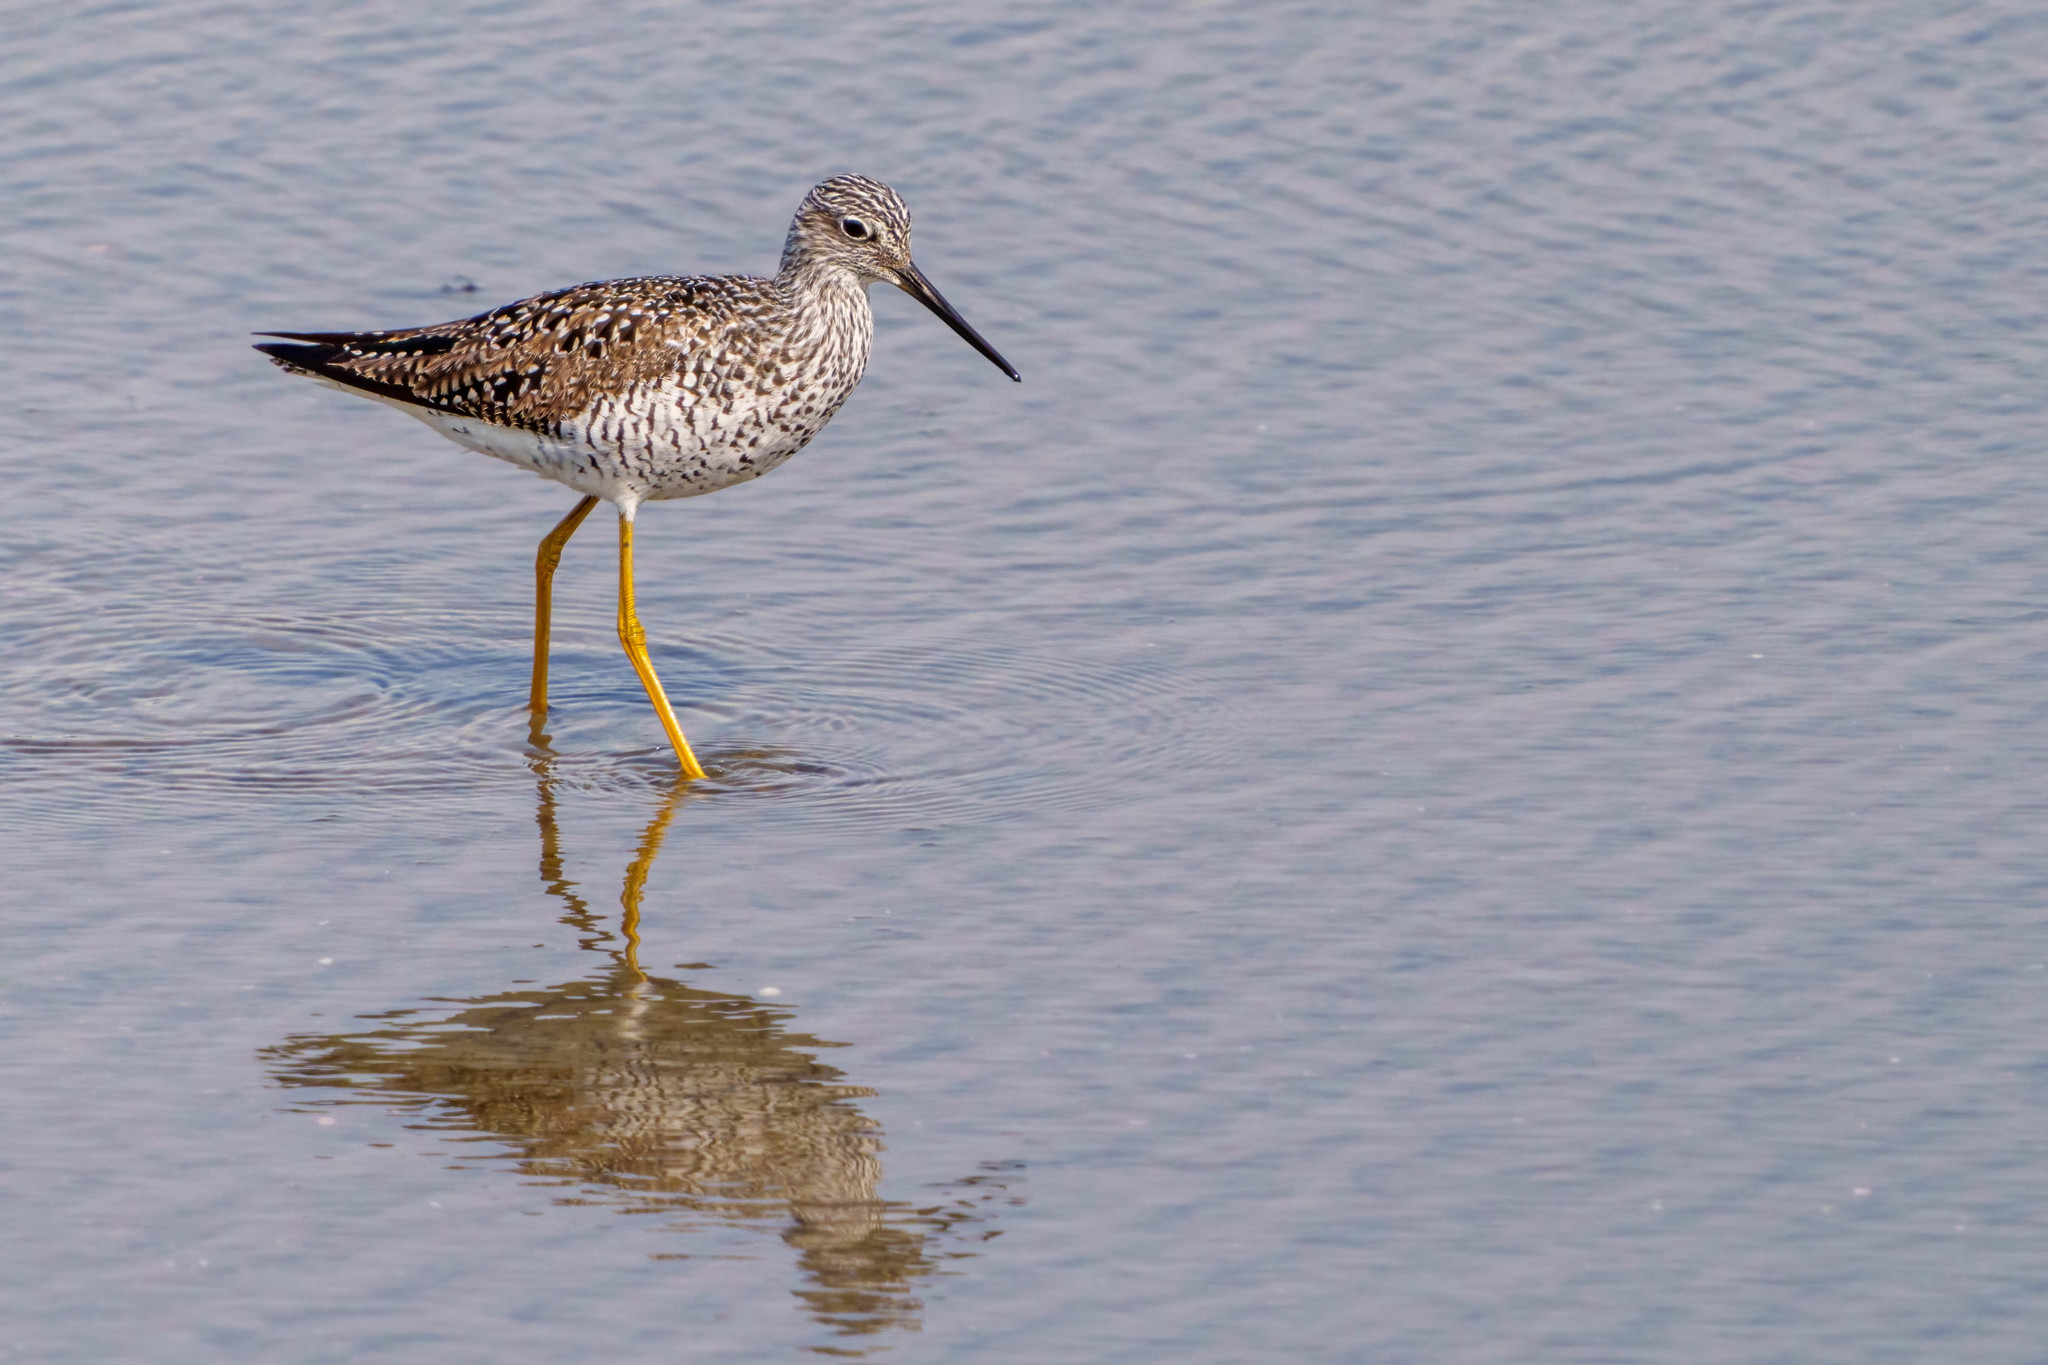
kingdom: Animalia
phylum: Chordata
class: Aves
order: Charadriiformes
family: Scolopacidae
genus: Tringa
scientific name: Tringa melanoleuca
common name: Greater yellowlegs
